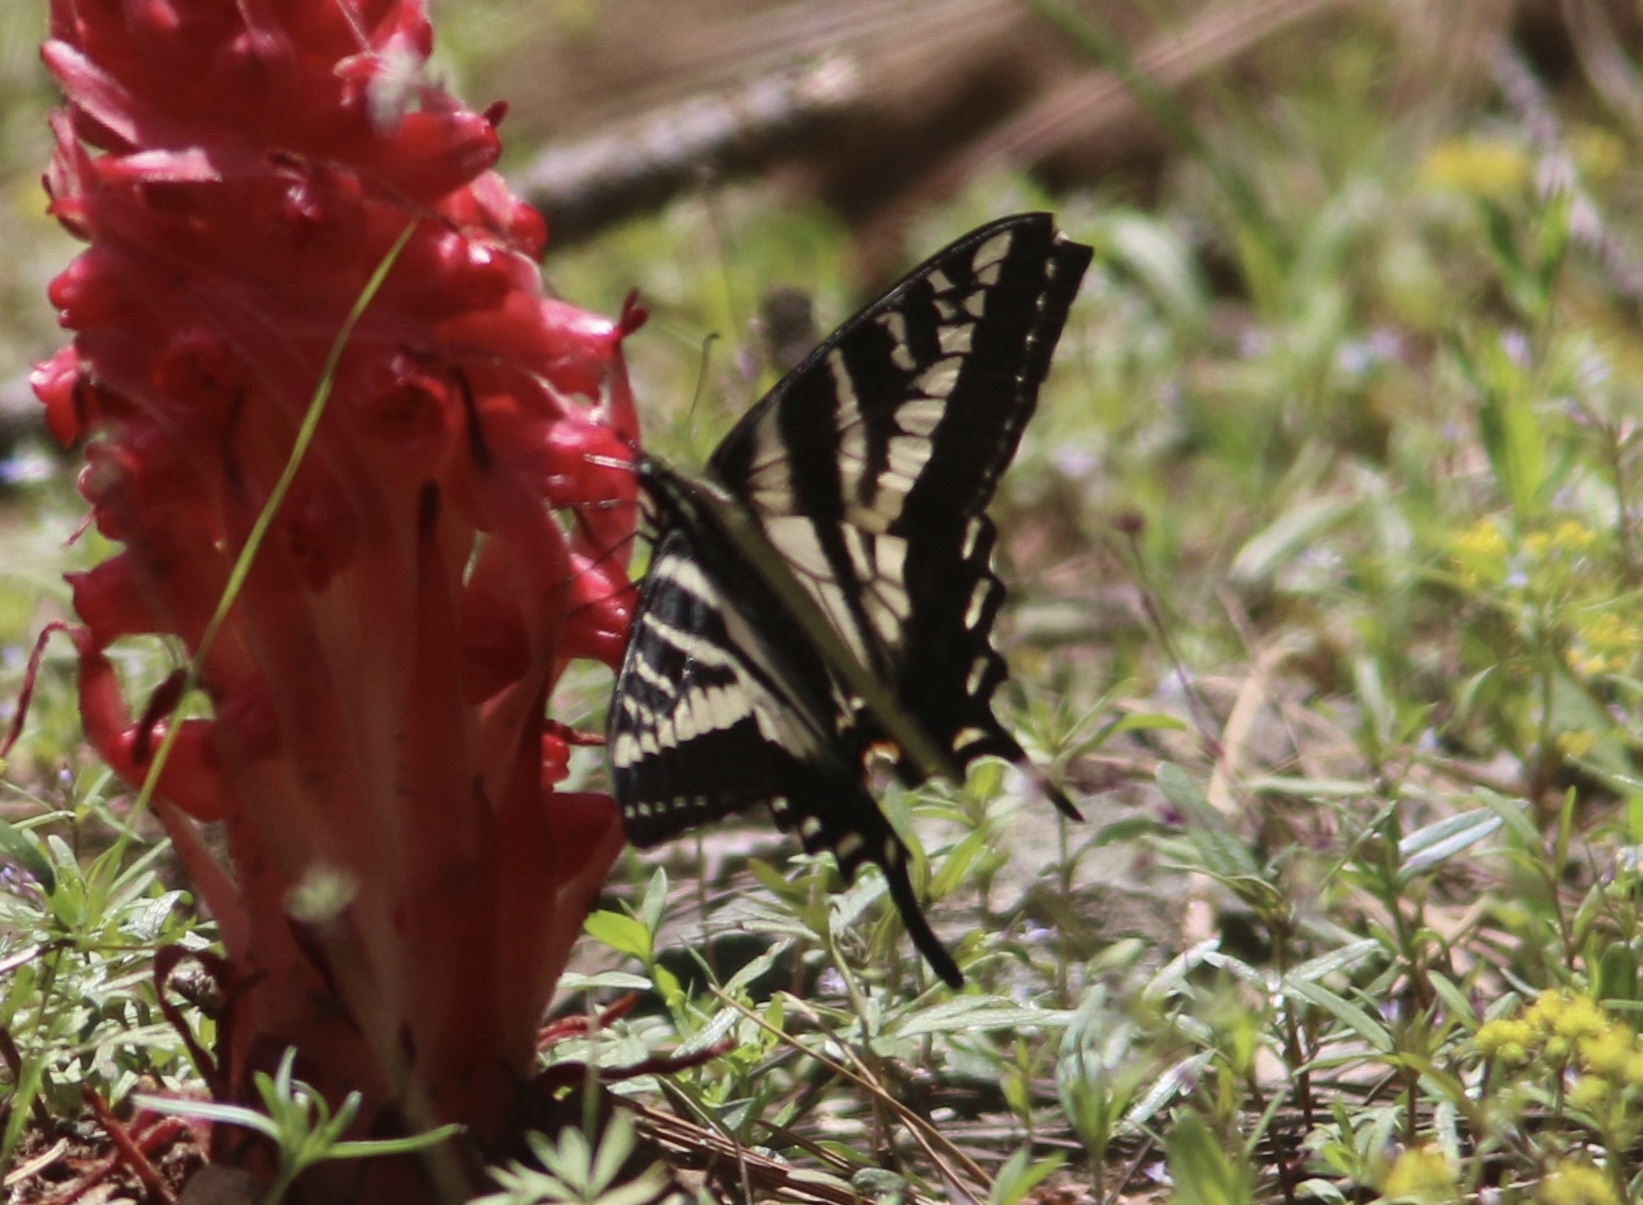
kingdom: Animalia
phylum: Arthropoda
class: Insecta
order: Lepidoptera
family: Papilionidae
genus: Papilio
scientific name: Papilio eurymedon
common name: Pale tiger swallowtail
